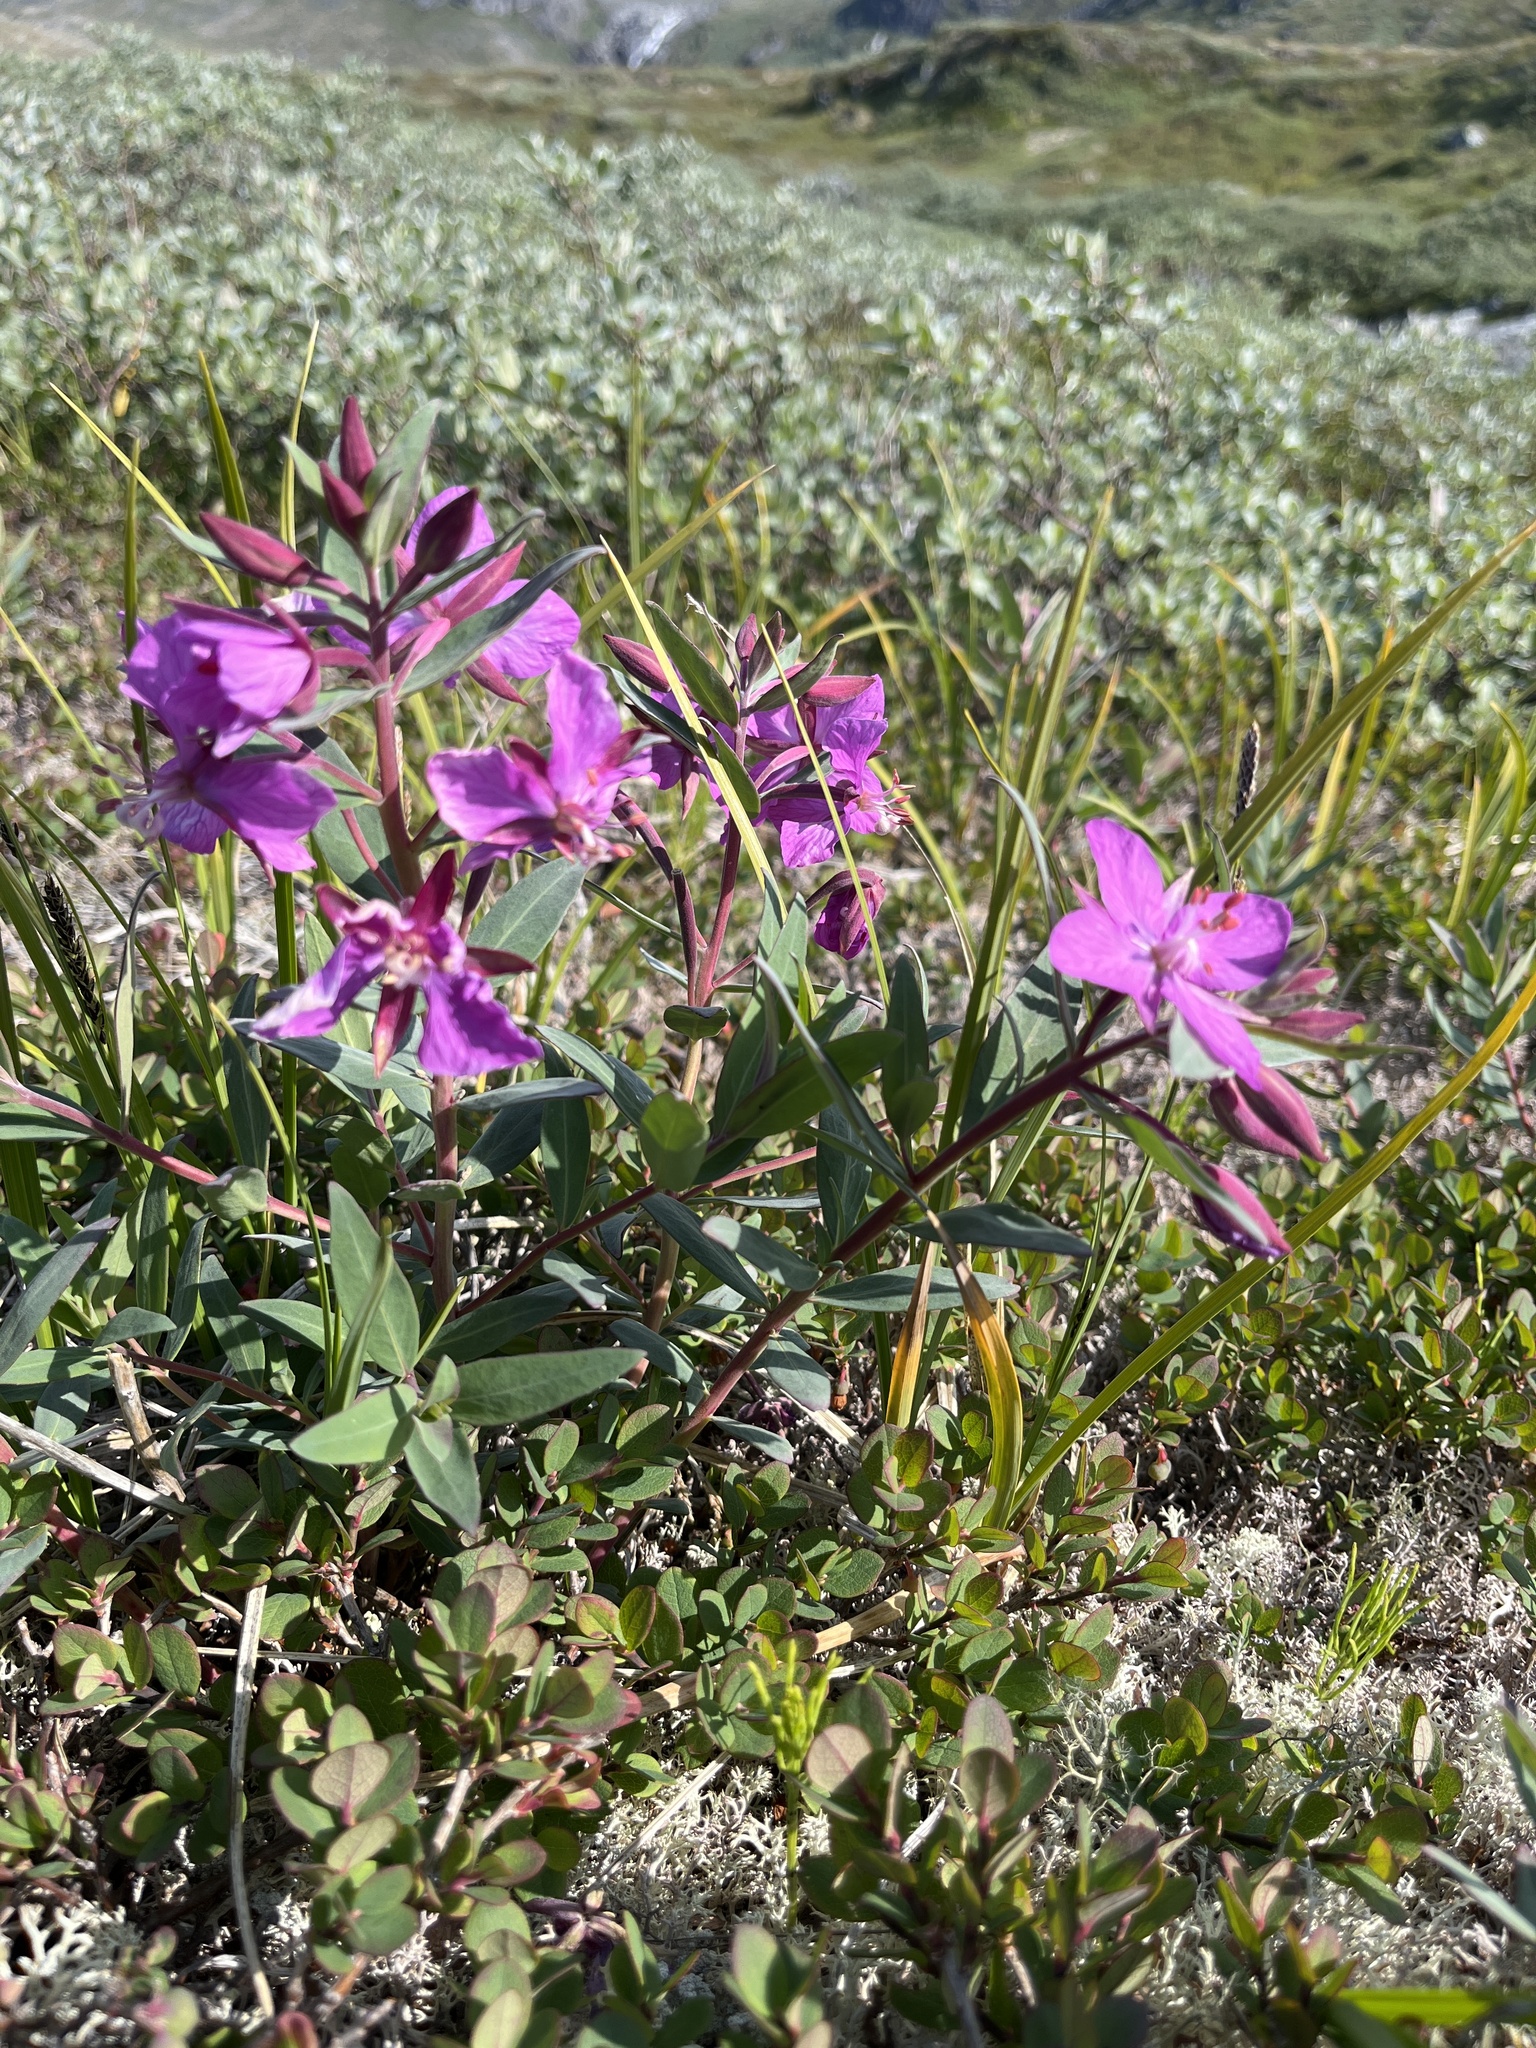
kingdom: Plantae
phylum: Tracheophyta
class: Magnoliopsida
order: Myrtales
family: Onagraceae
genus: Chamaenerion
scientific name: Chamaenerion latifolium
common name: Dwarf fireweed
